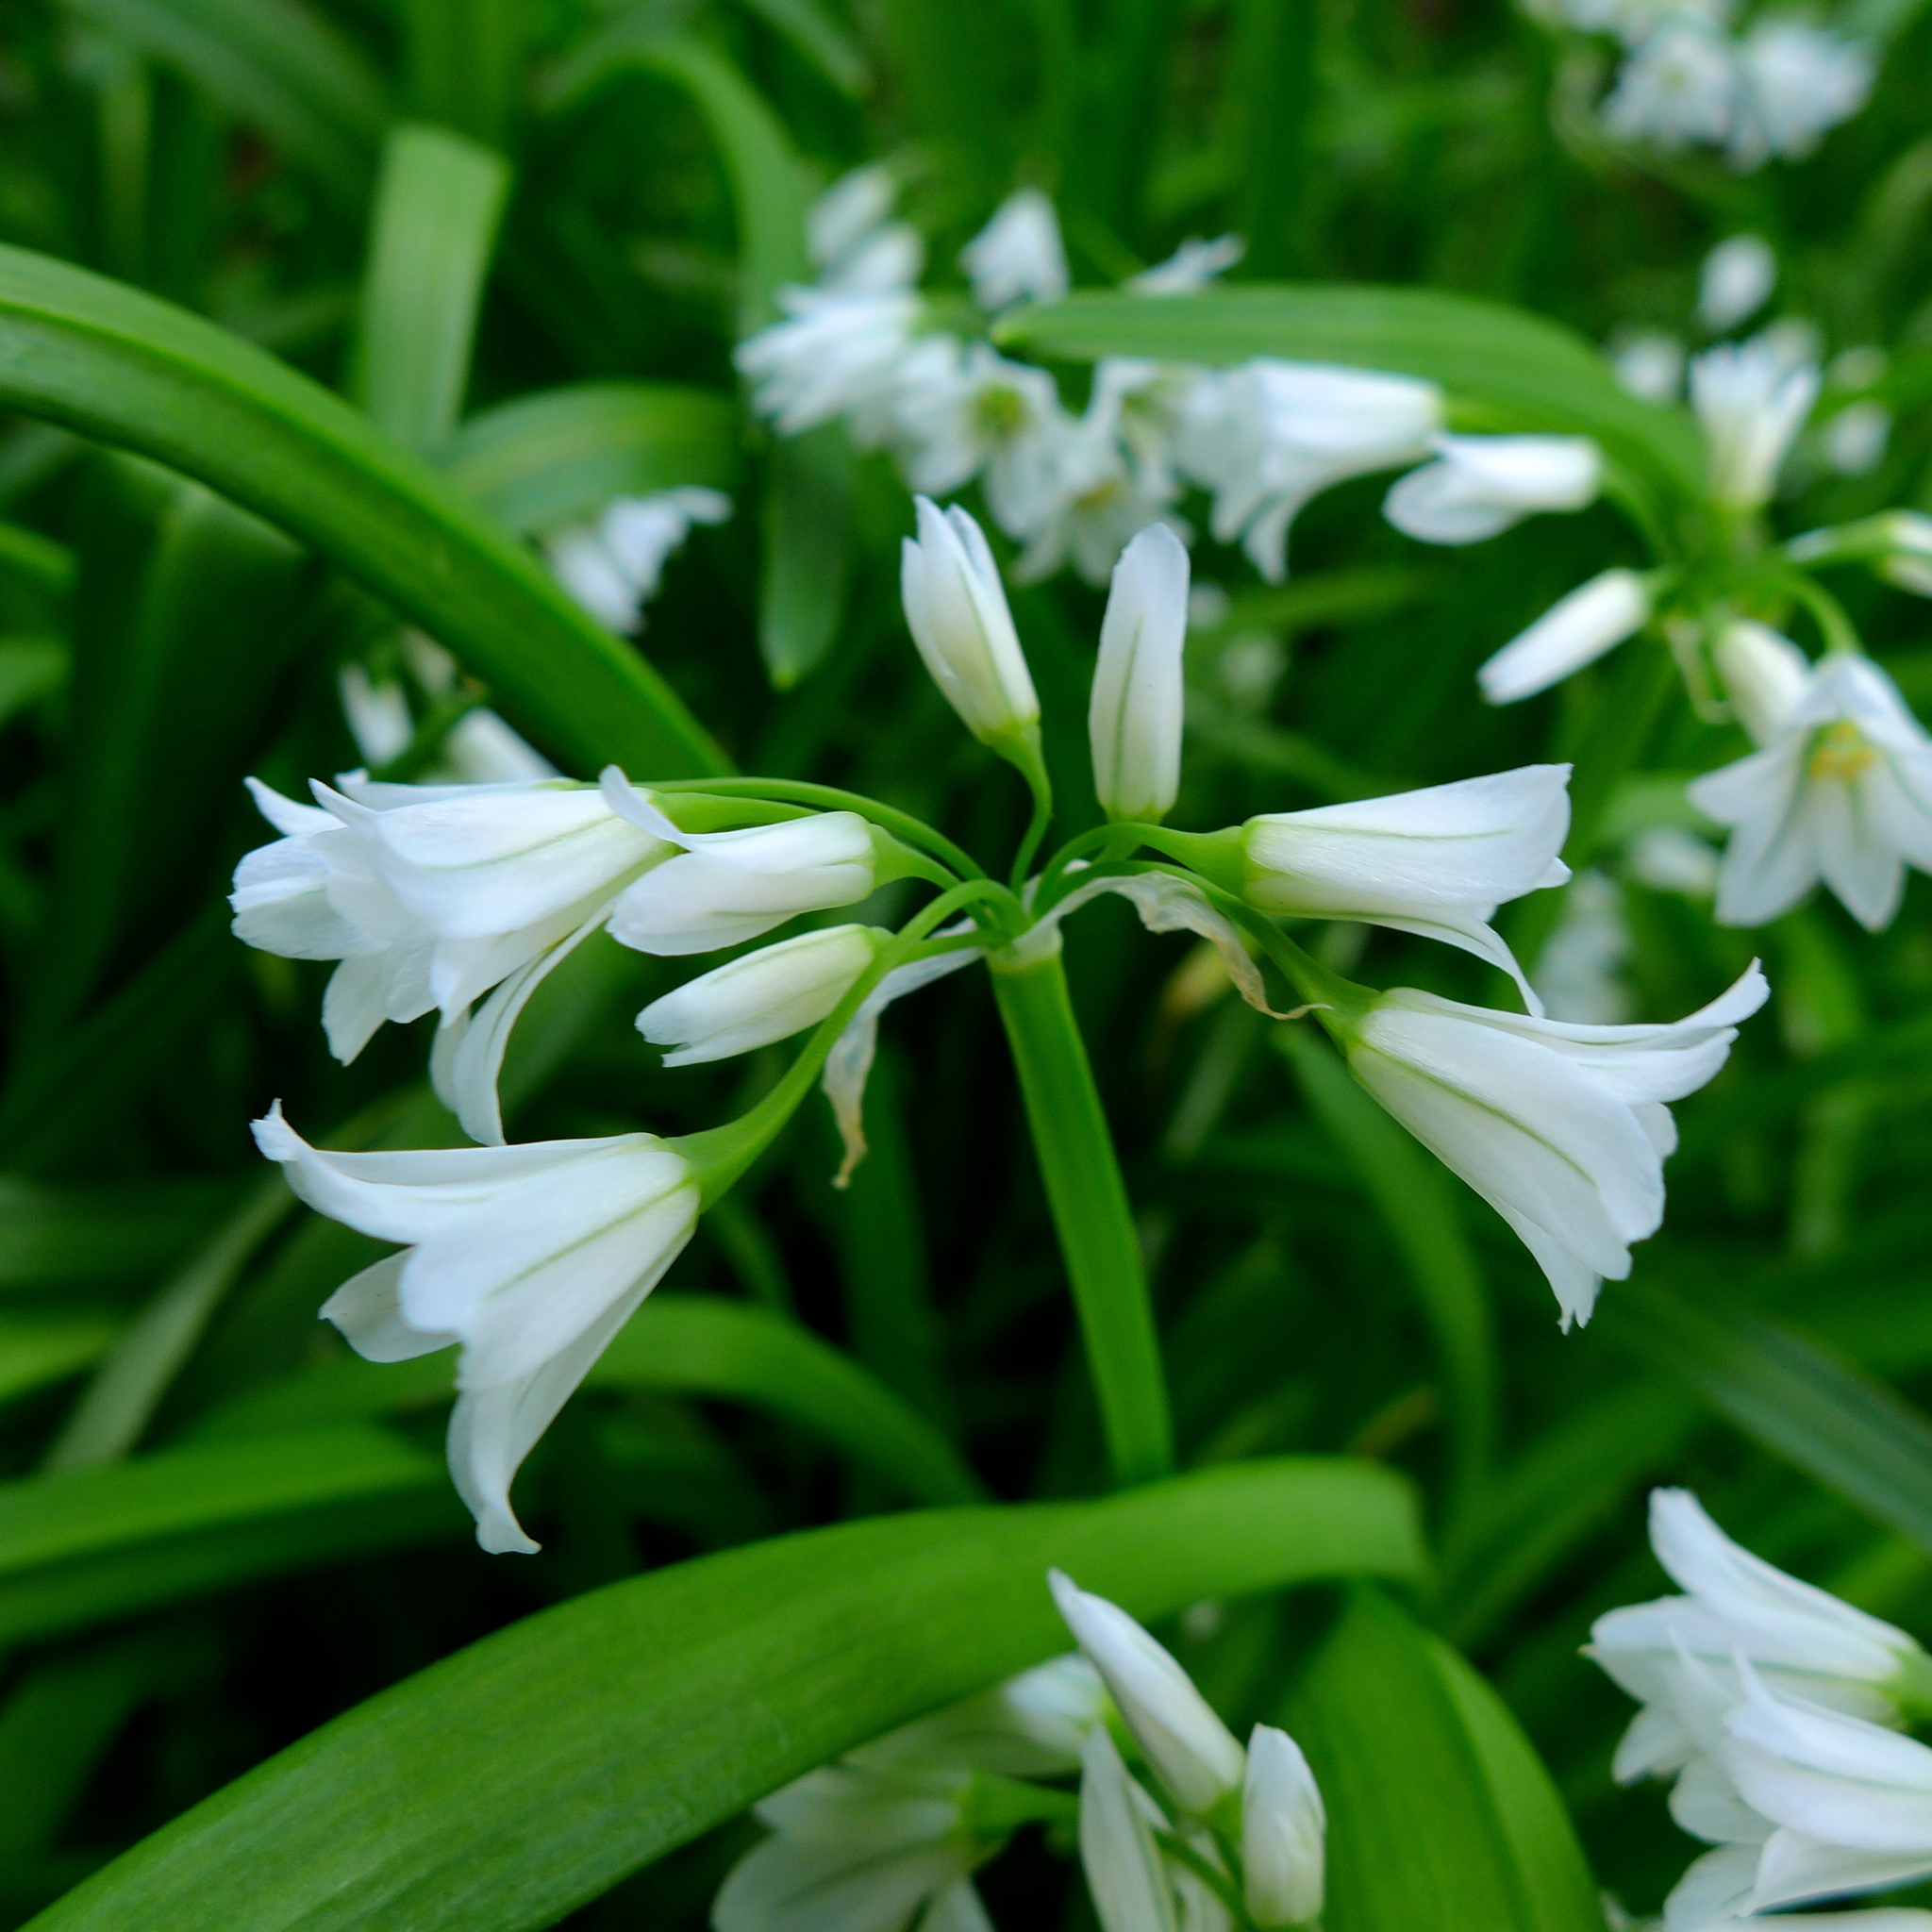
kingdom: Plantae
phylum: Tracheophyta
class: Liliopsida
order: Asparagales
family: Amaryllidaceae
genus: Allium
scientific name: Allium triquetrum
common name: Three-cornered garlic
